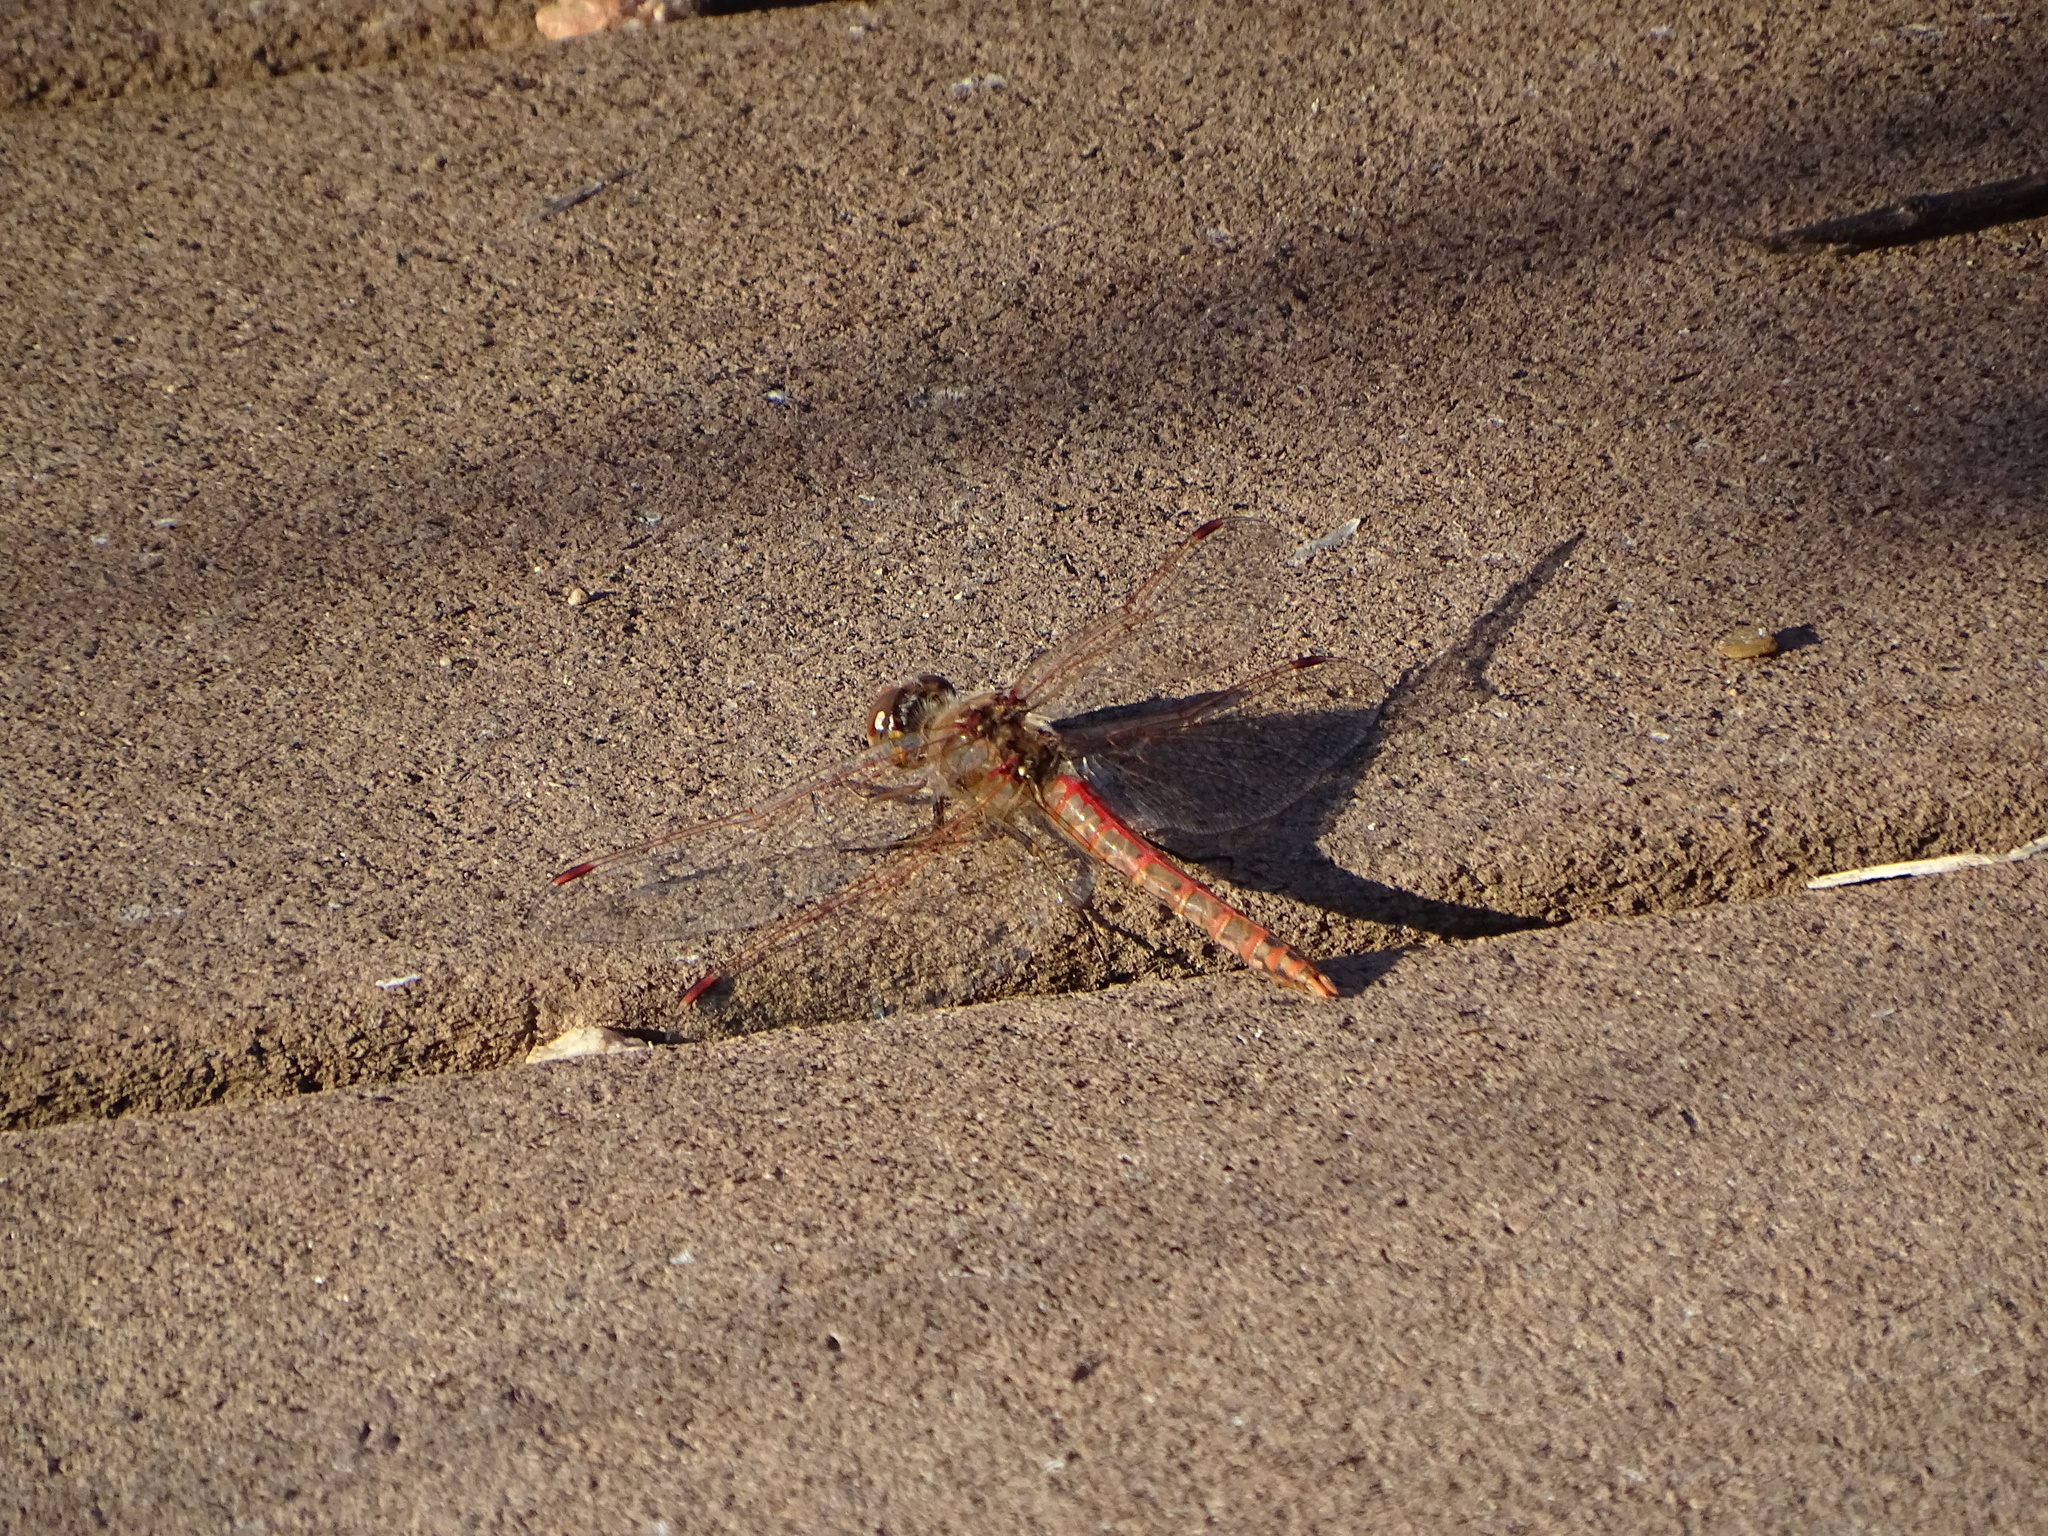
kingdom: Animalia
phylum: Arthropoda
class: Insecta
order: Odonata
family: Libellulidae
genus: Sympetrum
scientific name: Sympetrum corruptum
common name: Variegated meadowhawk
